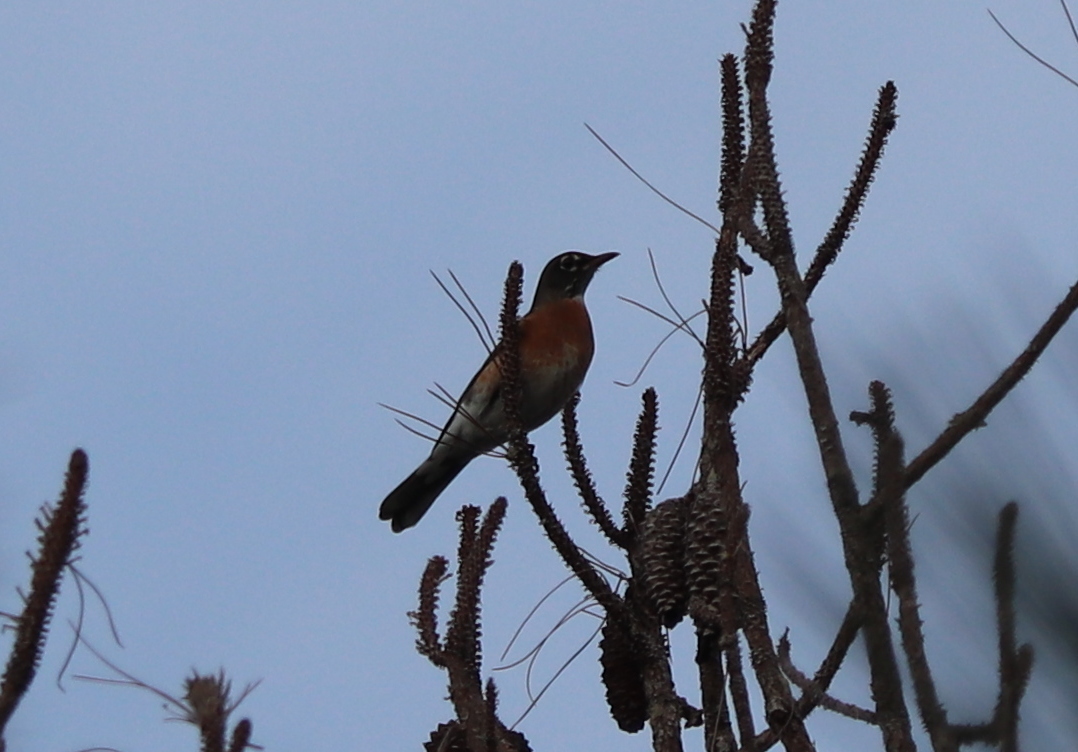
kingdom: Animalia
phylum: Chordata
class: Aves
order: Passeriformes
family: Turdidae
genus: Turdus
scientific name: Turdus migratorius
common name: American robin
